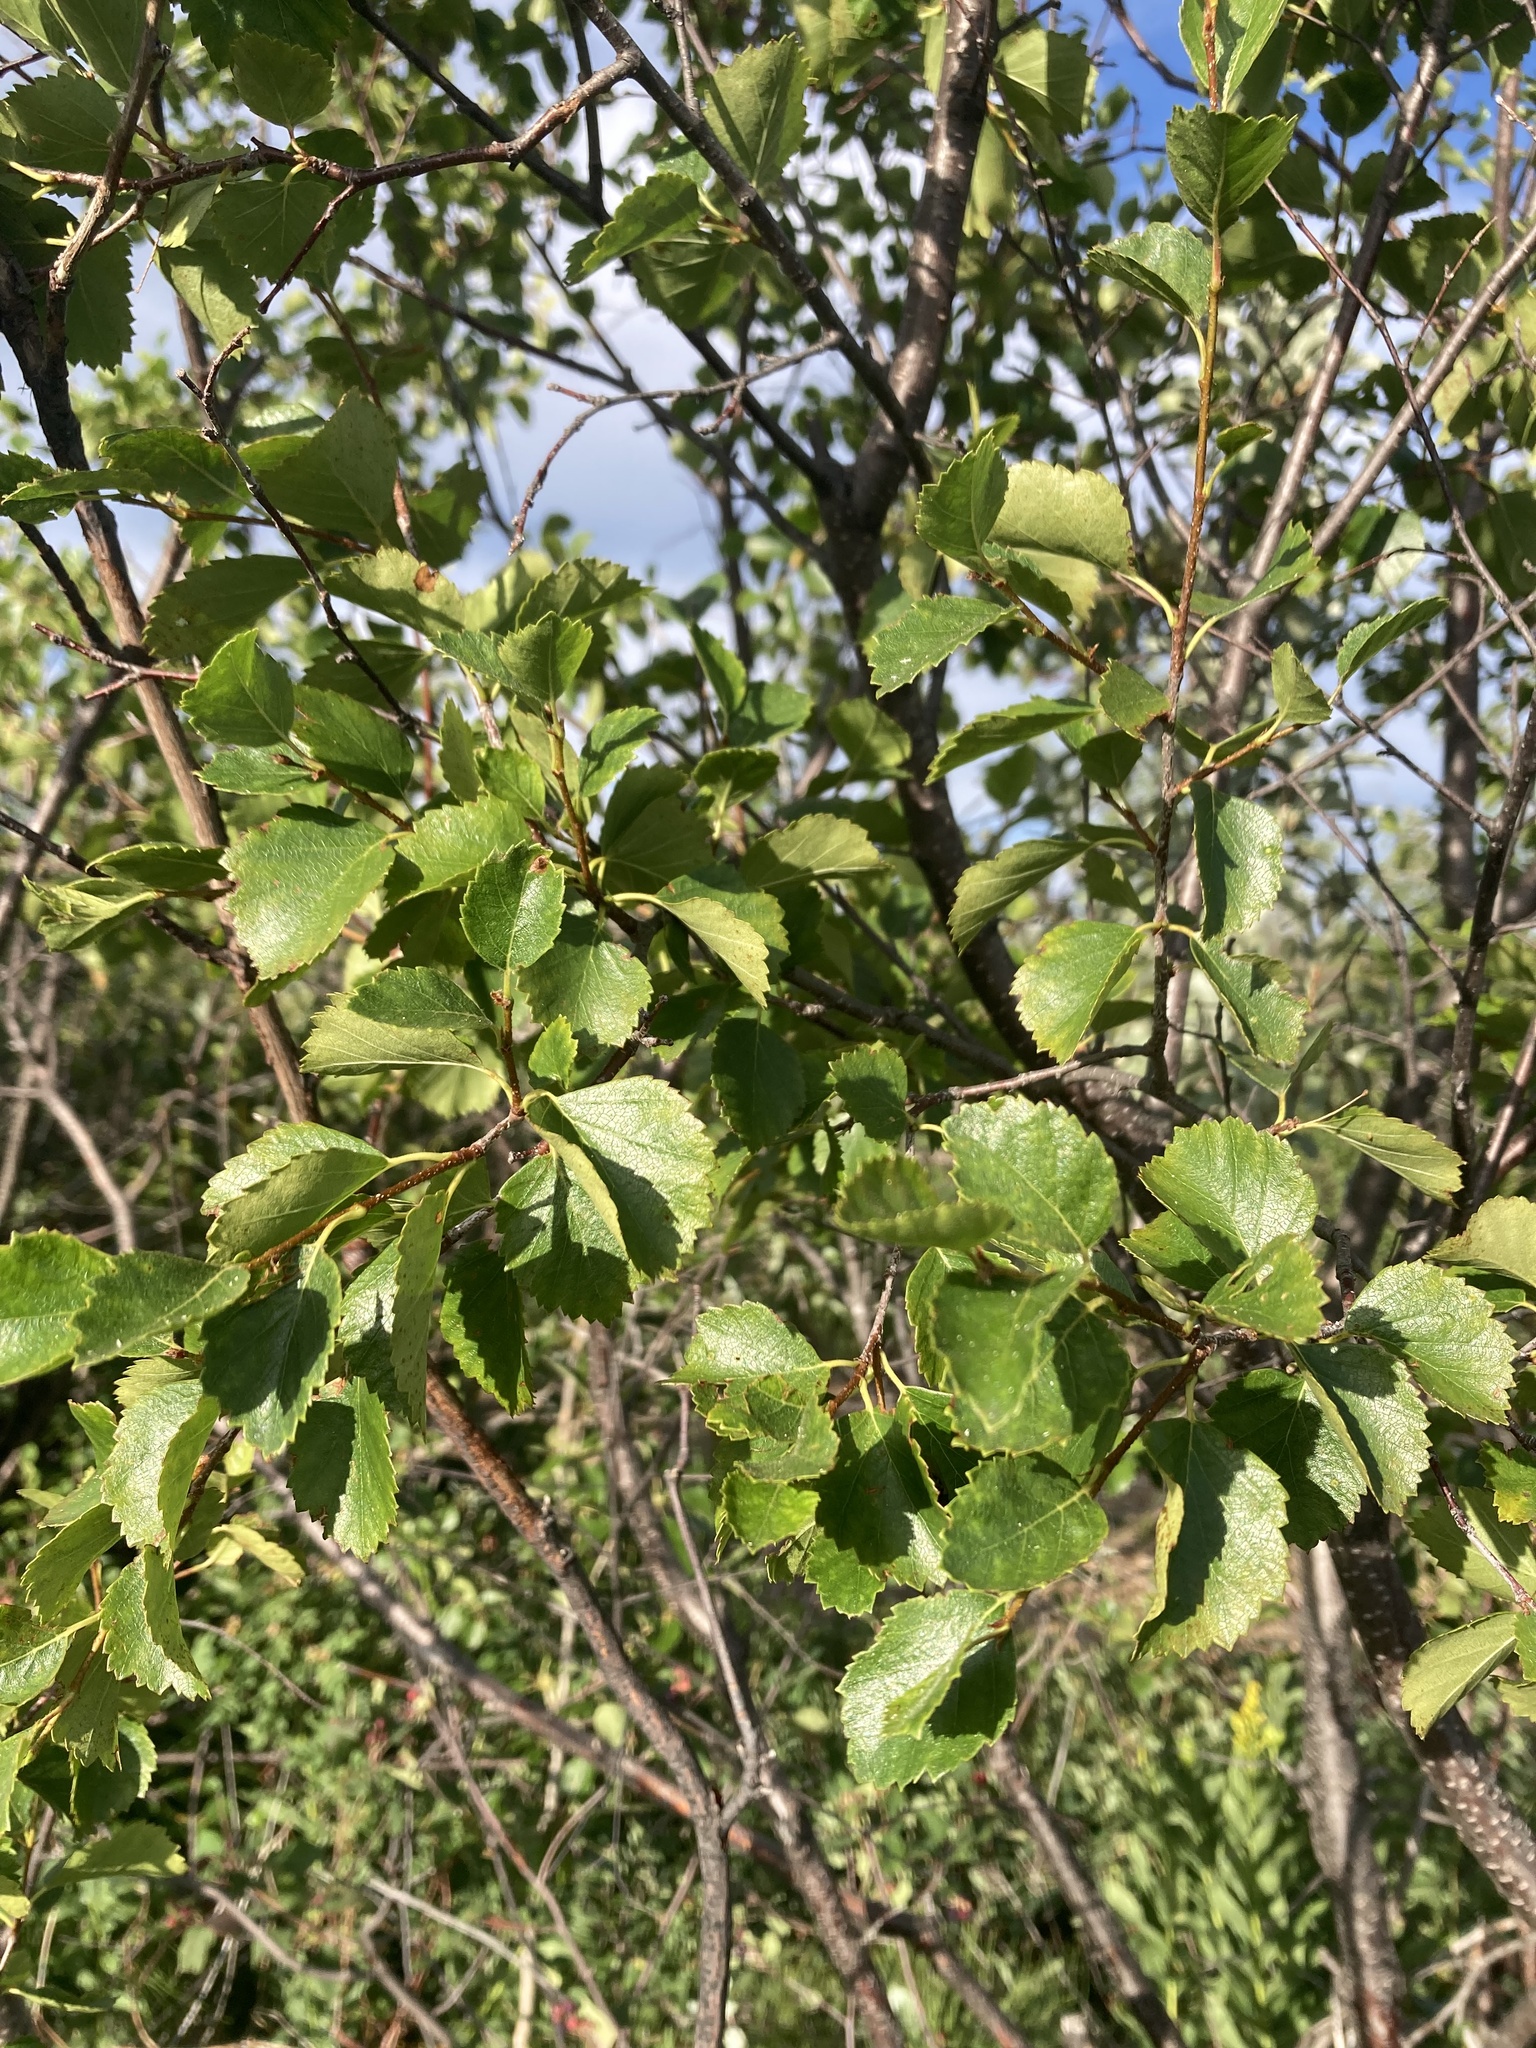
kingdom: Plantae
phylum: Tracheophyta
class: Magnoliopsida
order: Fagales
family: Betulaceae
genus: Betula
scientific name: Betula occidentalis
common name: River birch
